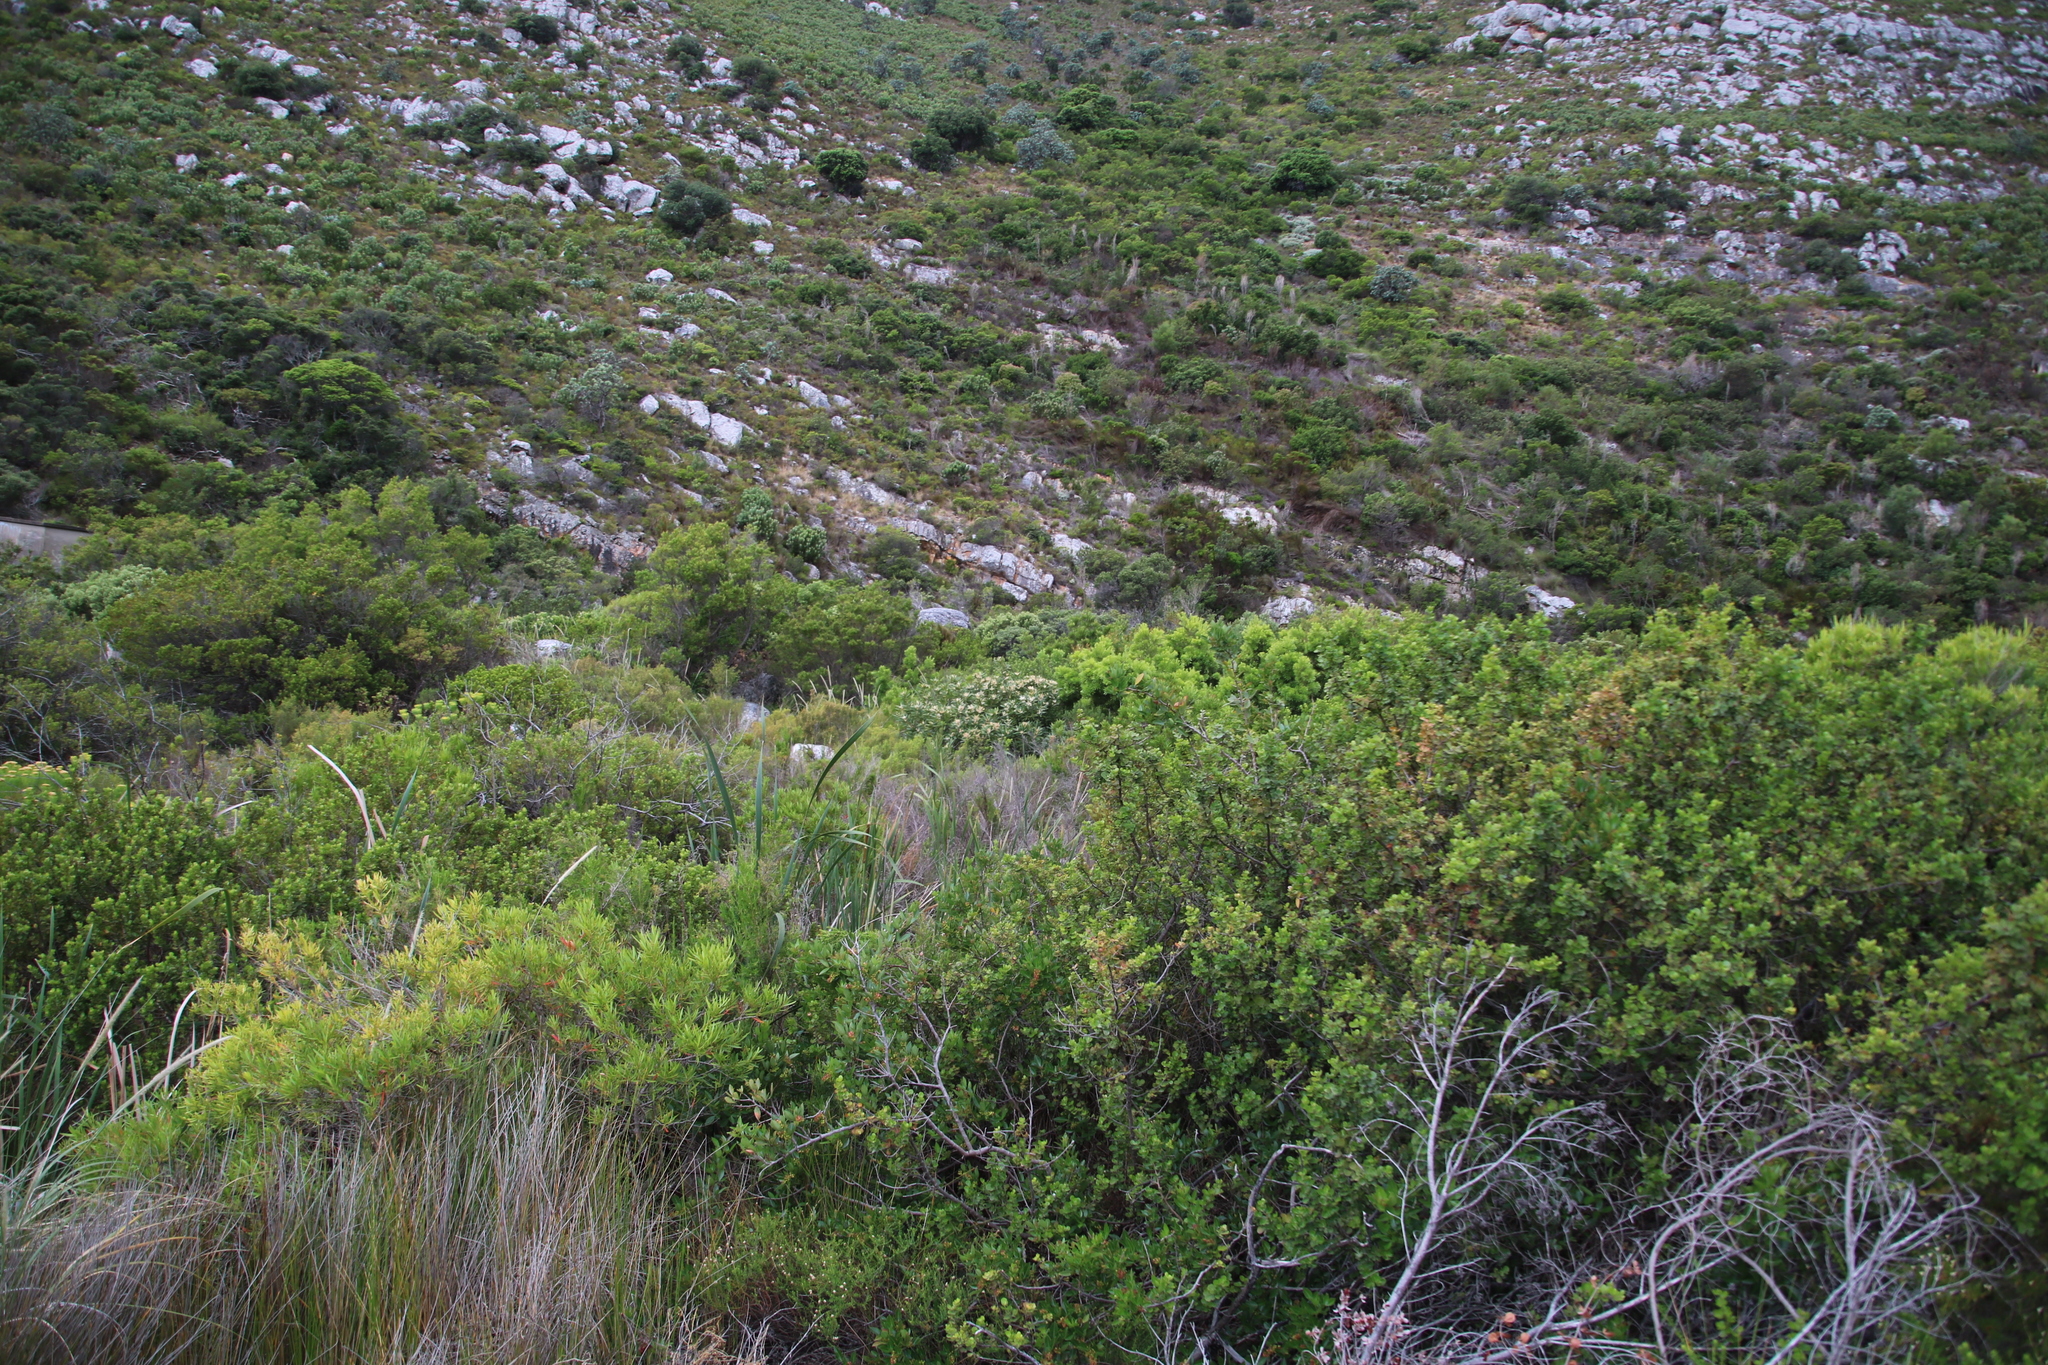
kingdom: Plantae
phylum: Tracheophyta
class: Magnoliopsida
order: Proteales
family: Proteaceae
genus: Brabejum
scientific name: Brabejum stellatifolium
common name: Wild almond
